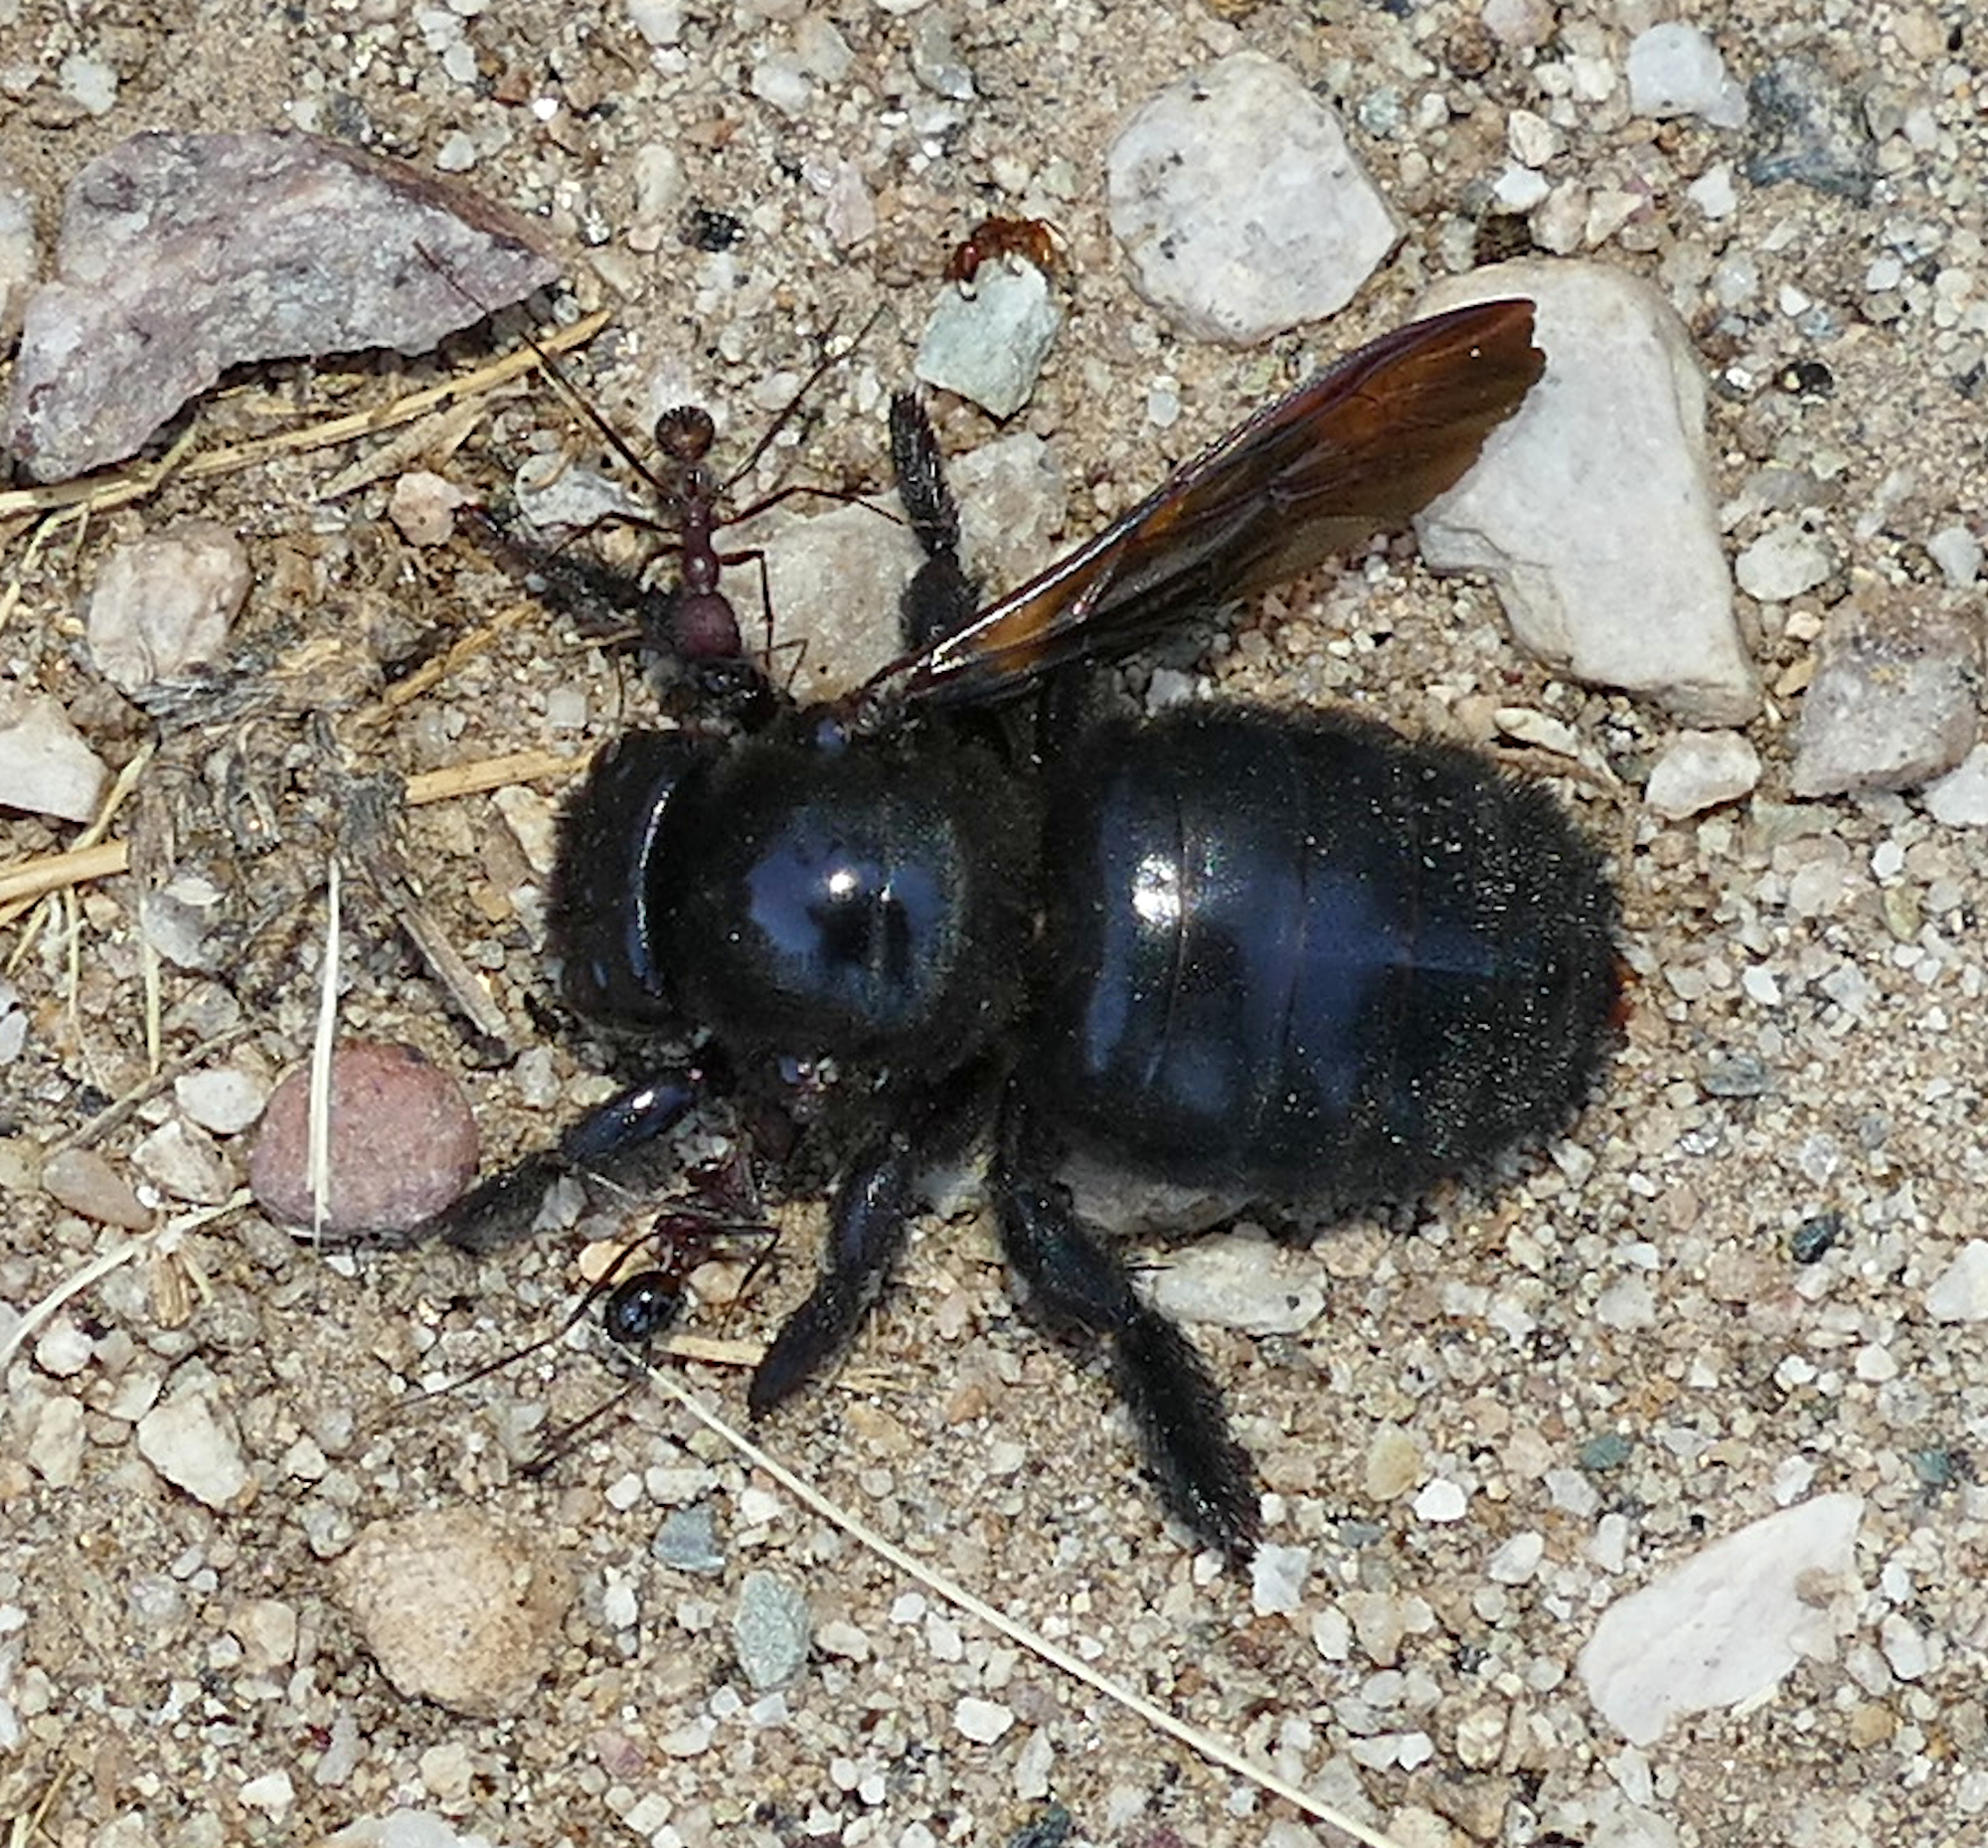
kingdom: Animalia
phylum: Arthropoda
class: Insecta
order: Hymenoptera
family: Apidae
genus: Xylocopa
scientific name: Xylocopa sonorina
